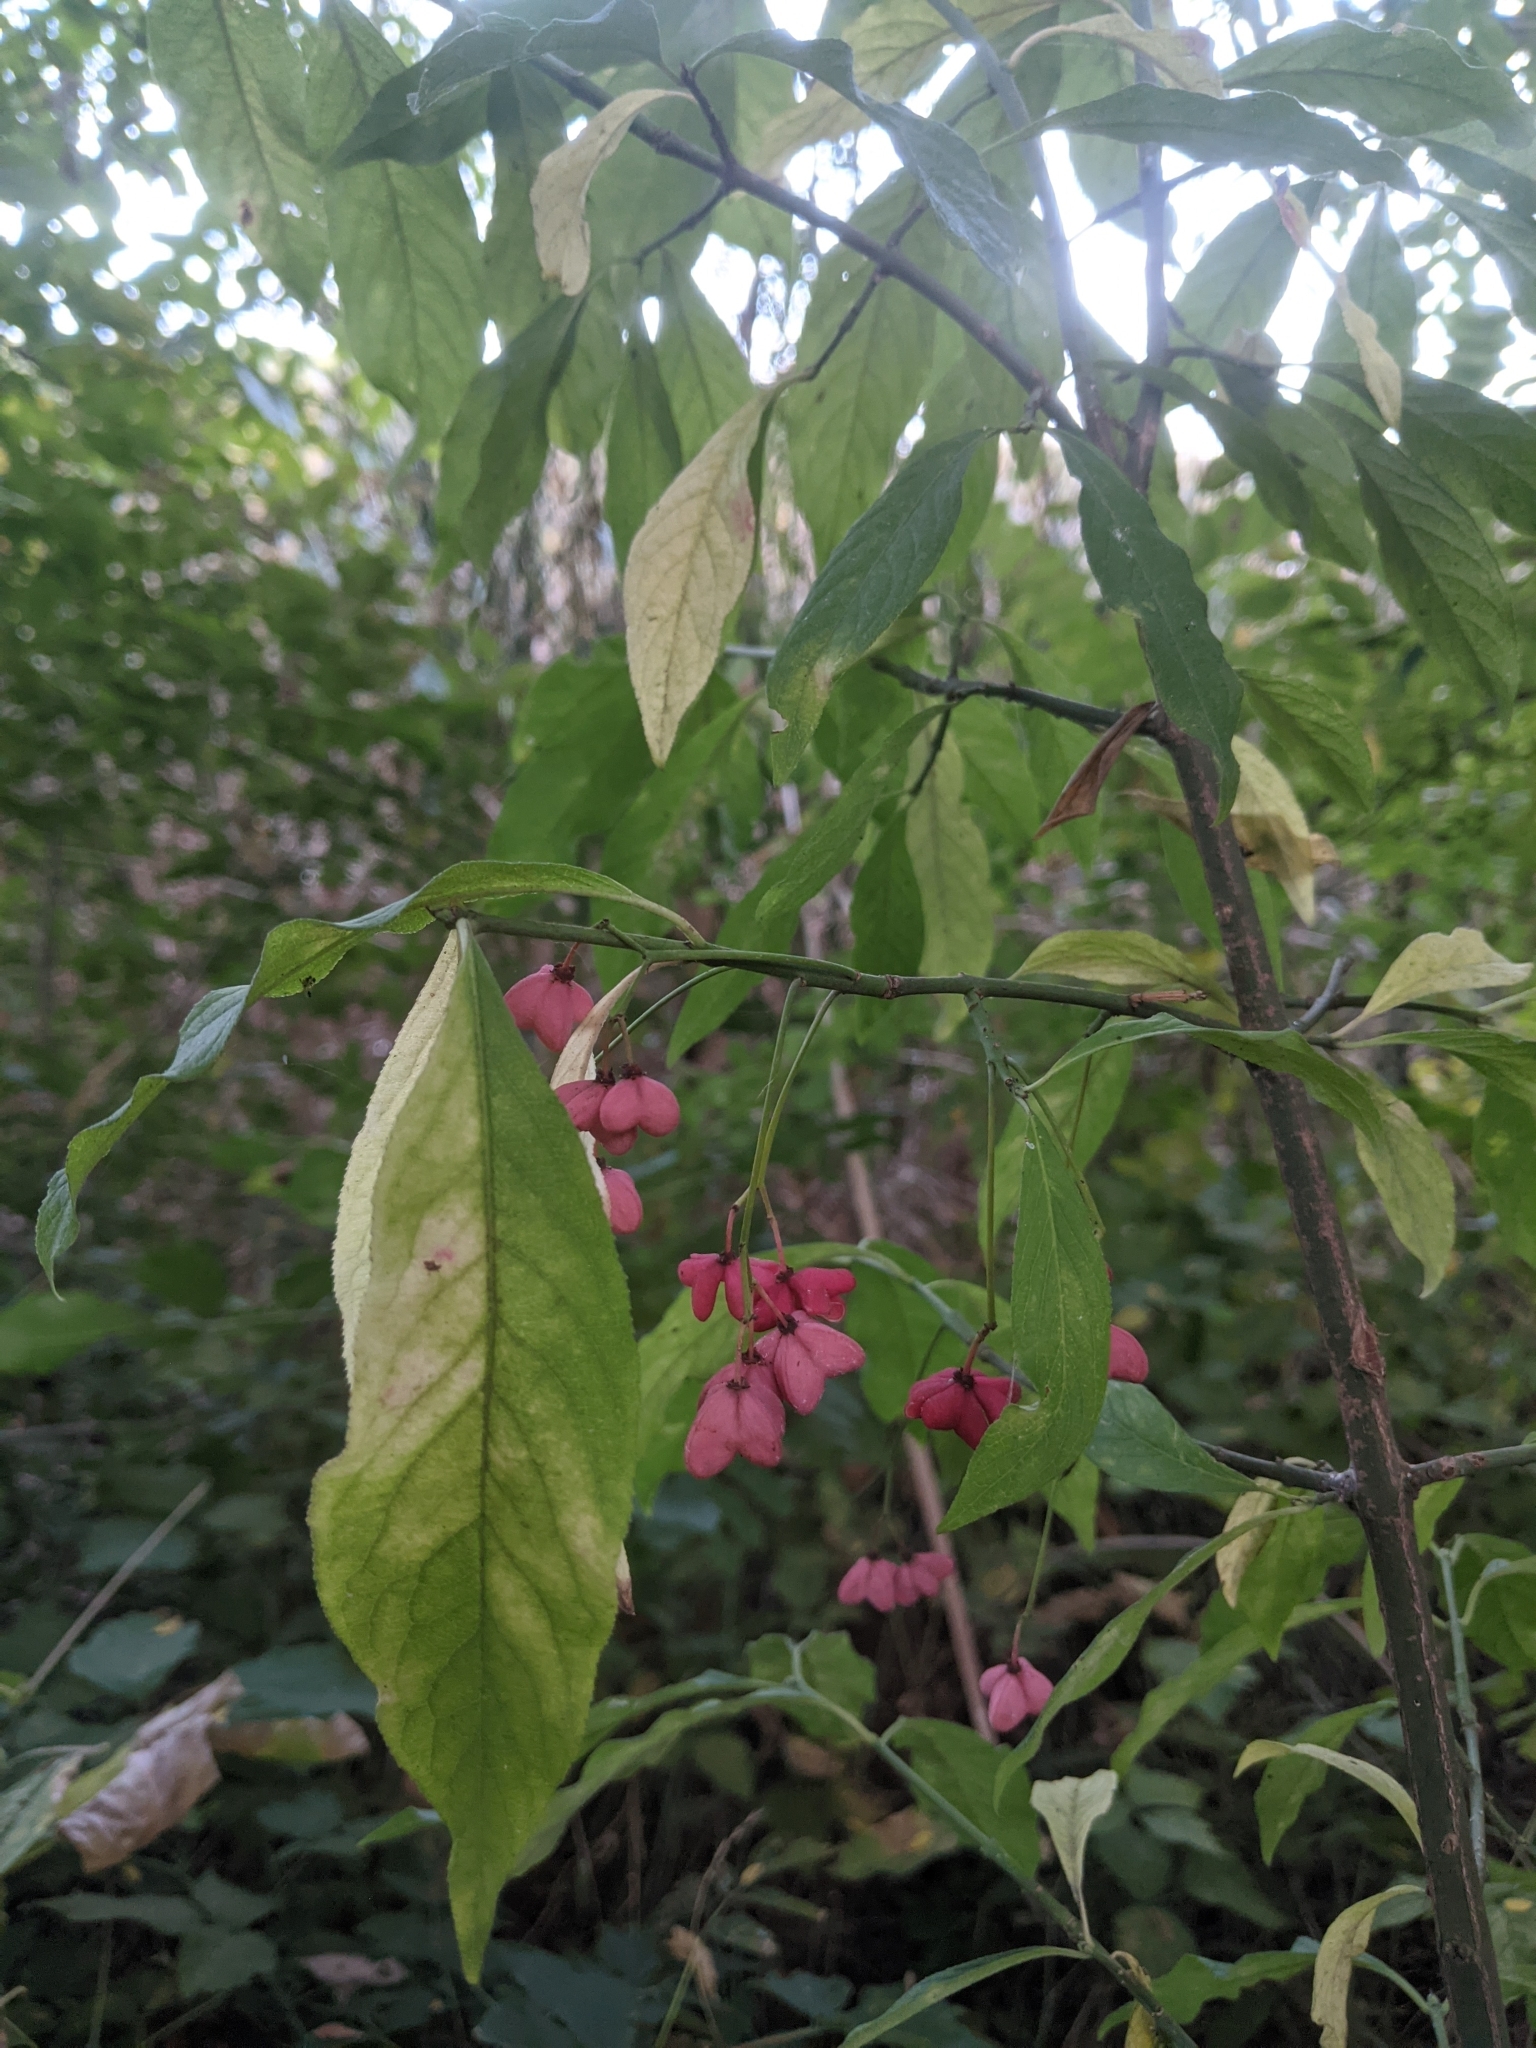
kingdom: Plantae
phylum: Tracheophyta
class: Magnoliopsida
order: Celastrales
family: Celastraceae
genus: Euonymus
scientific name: Euonymus europaeus
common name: Spindle
